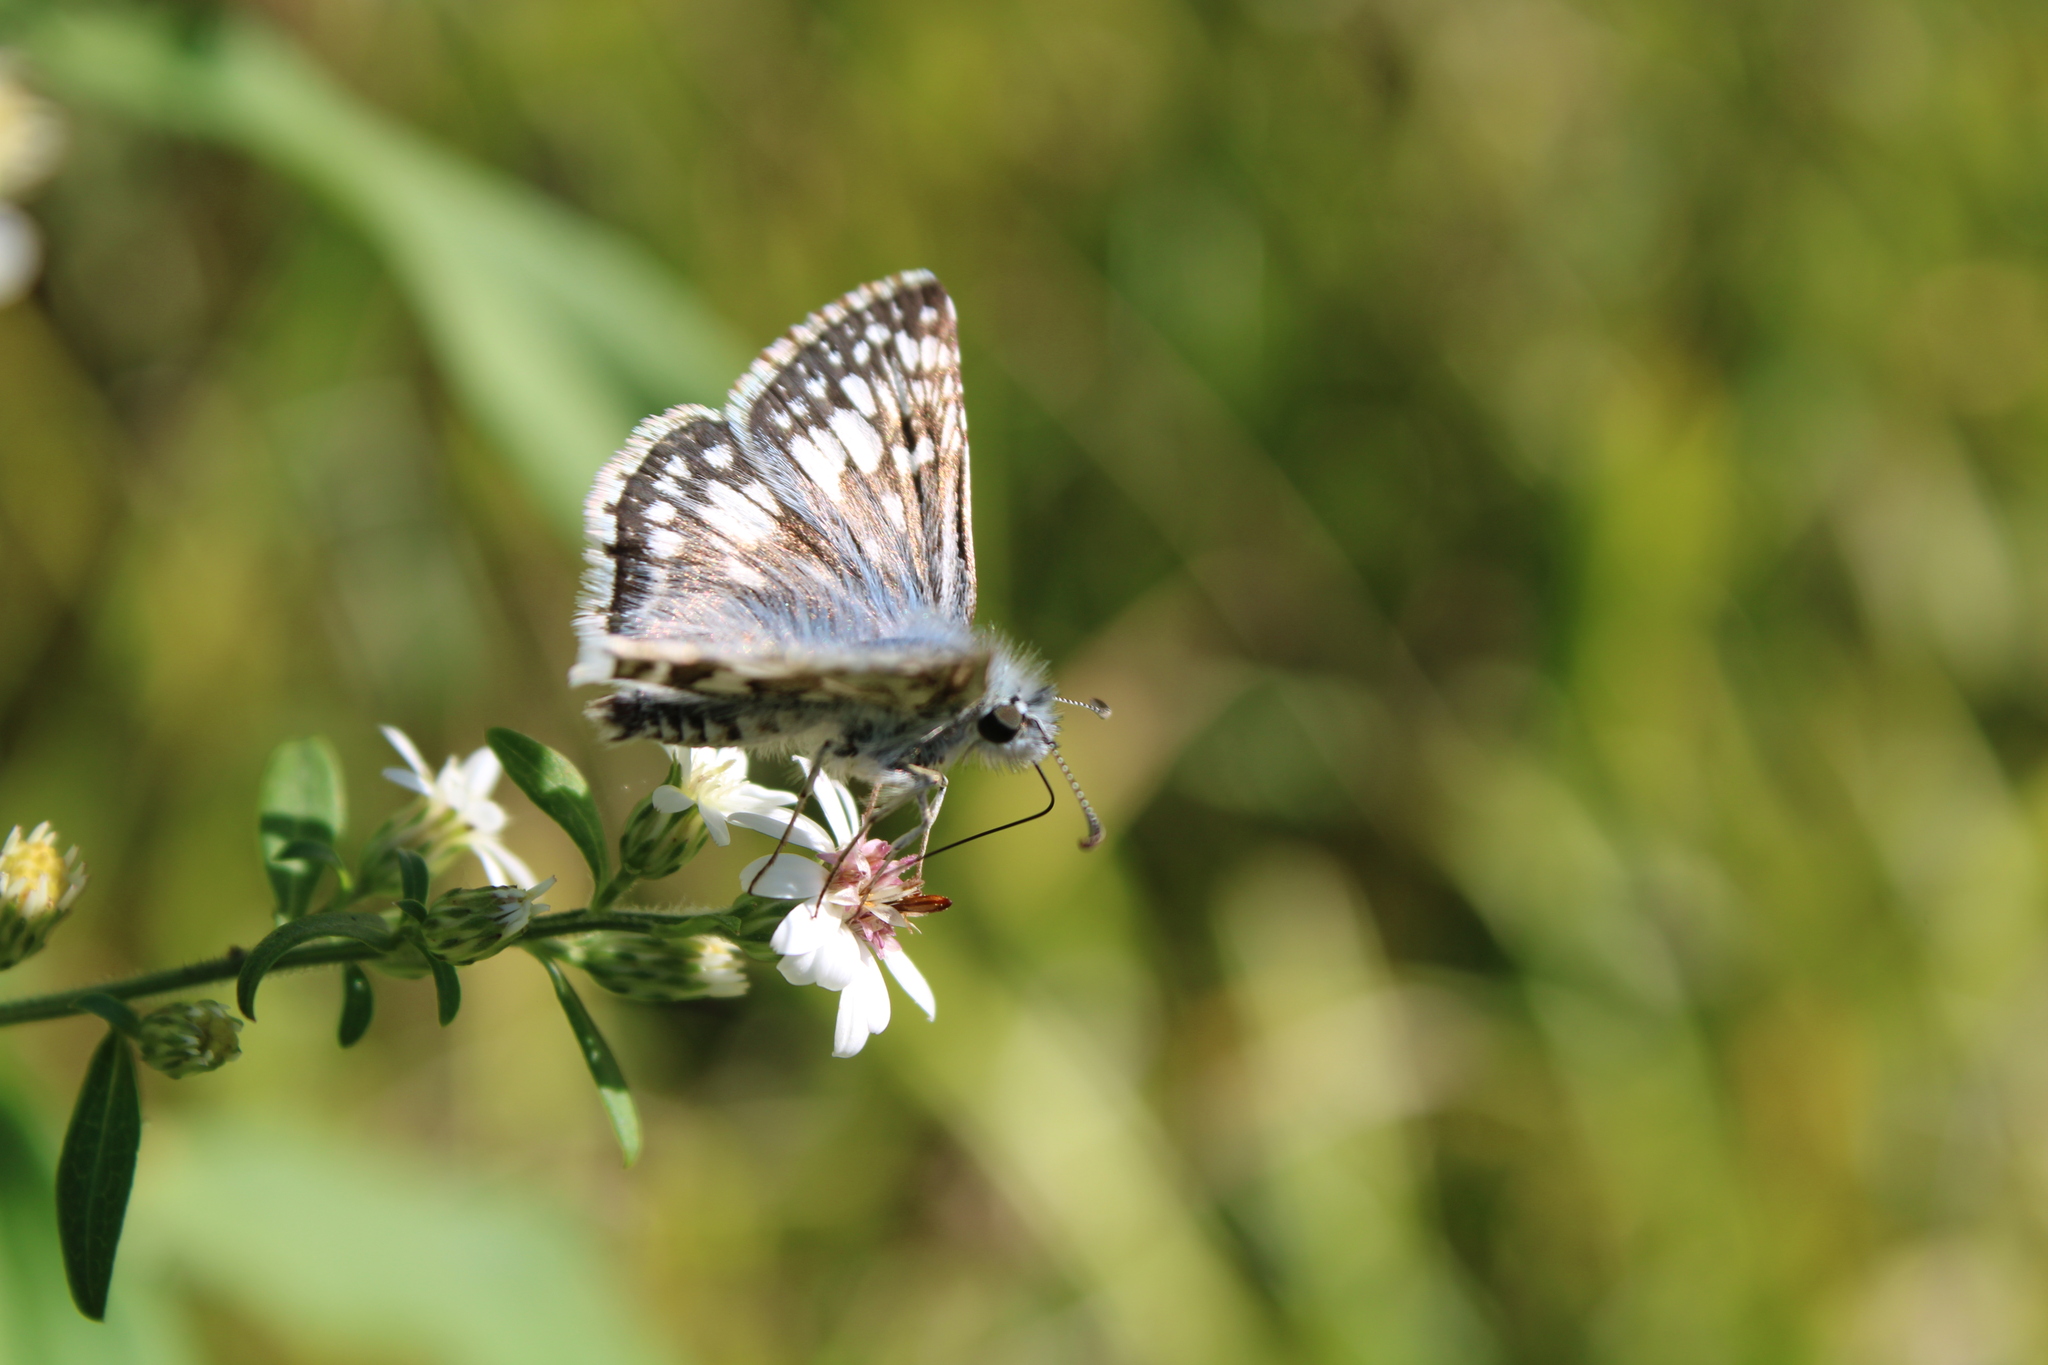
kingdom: Animalia
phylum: Arthropoda
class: Insecta
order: Lepidoptera
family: Hesperiidae
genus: Burnsius
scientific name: Burnsius communis
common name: Common checkered-skipper
